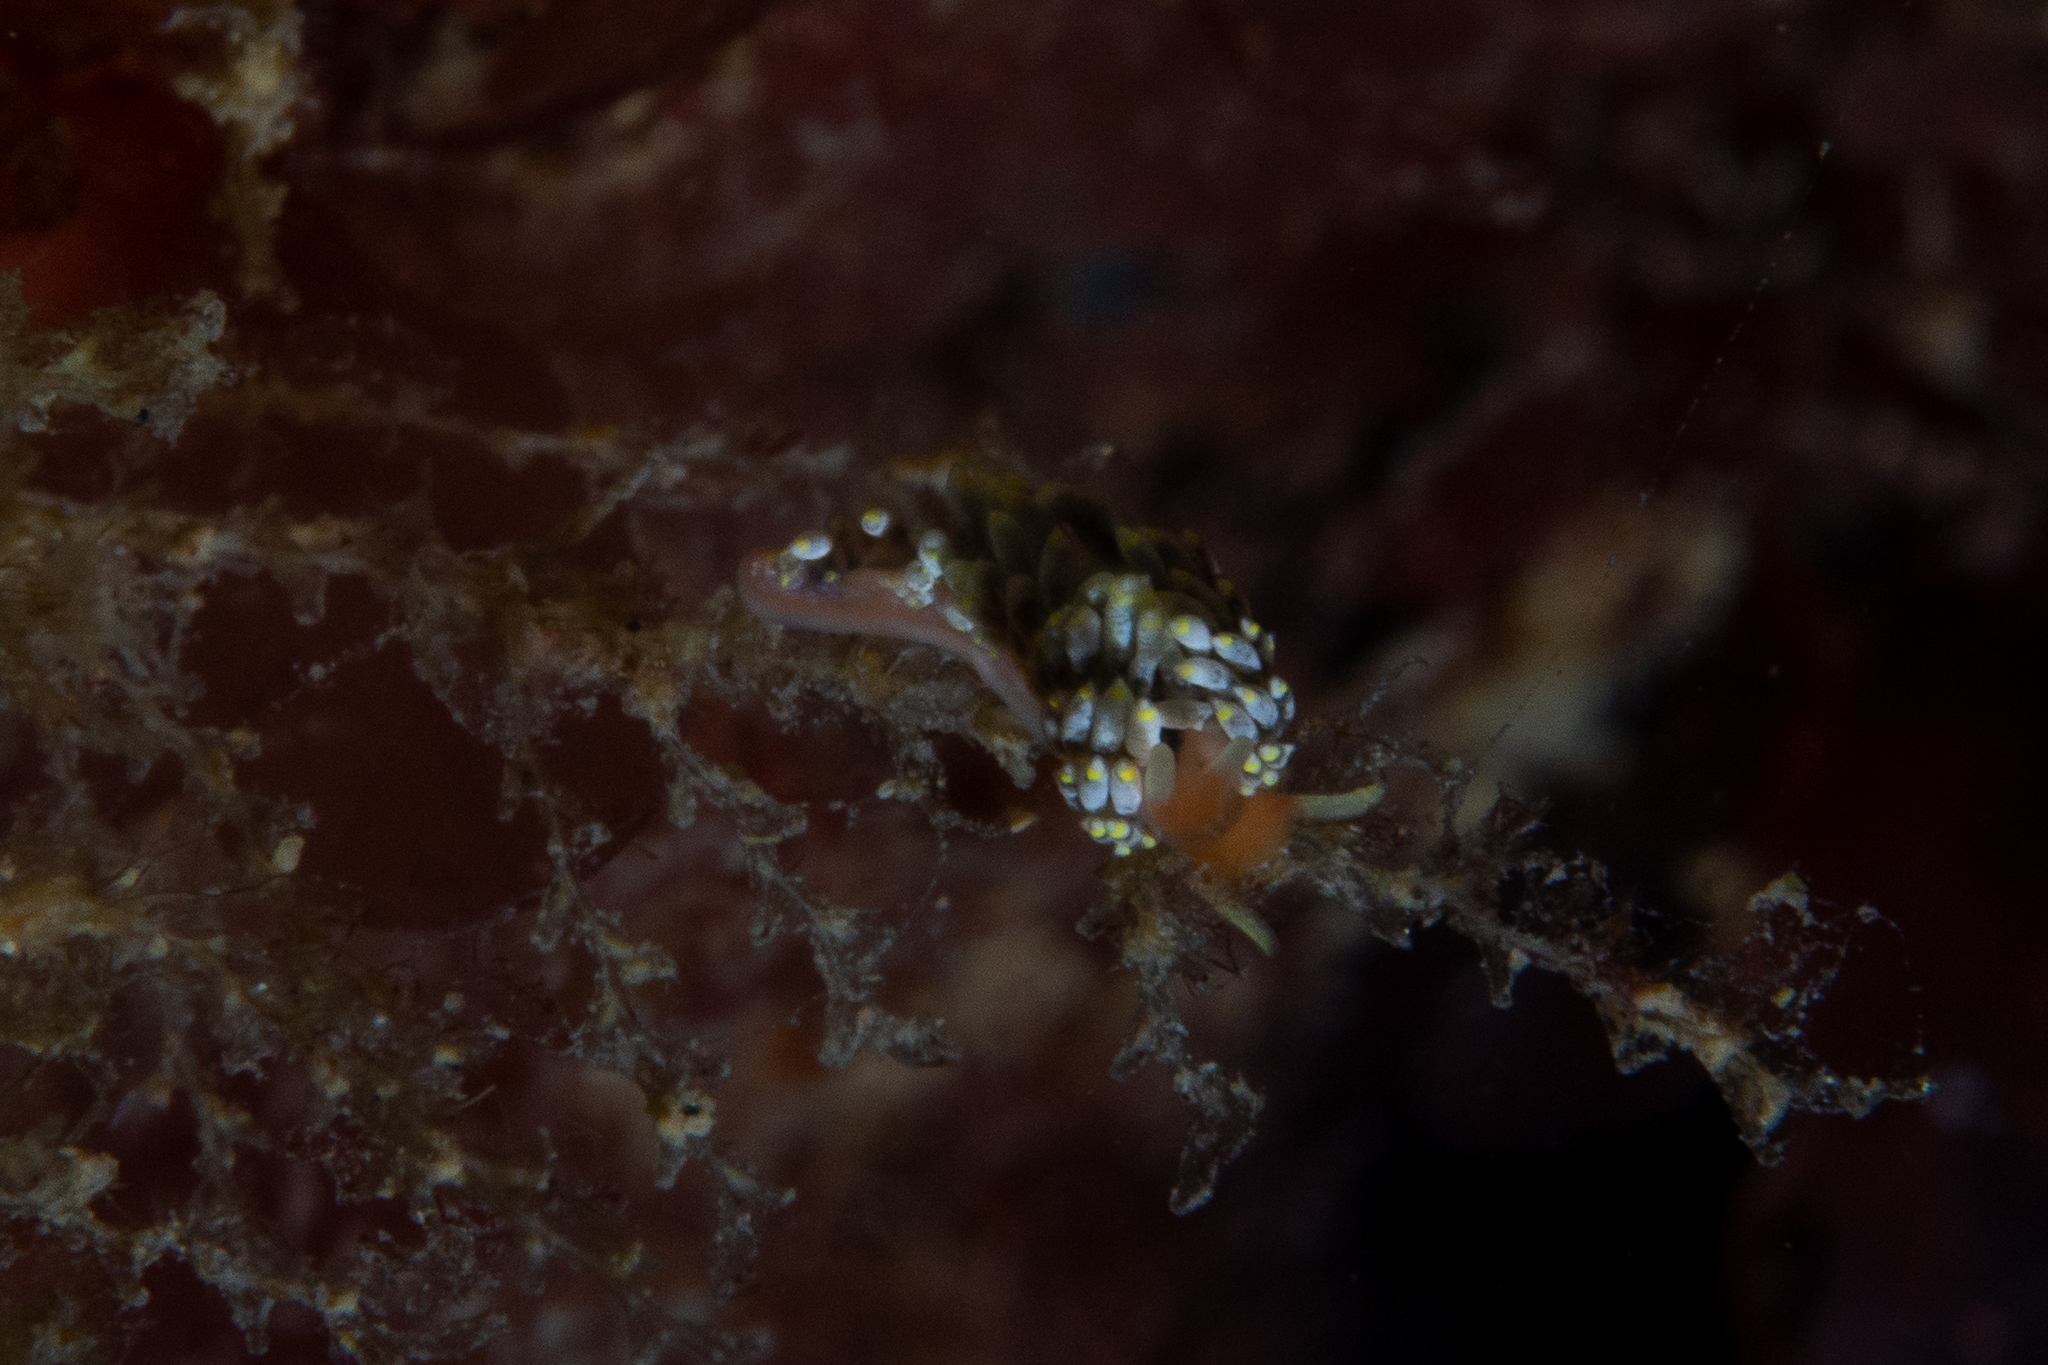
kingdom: Animalia
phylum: Mollusca
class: Gastropoda
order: Nudibranchia
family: Trinchesiidae
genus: Trinchesia
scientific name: Trinchesia catachroma
